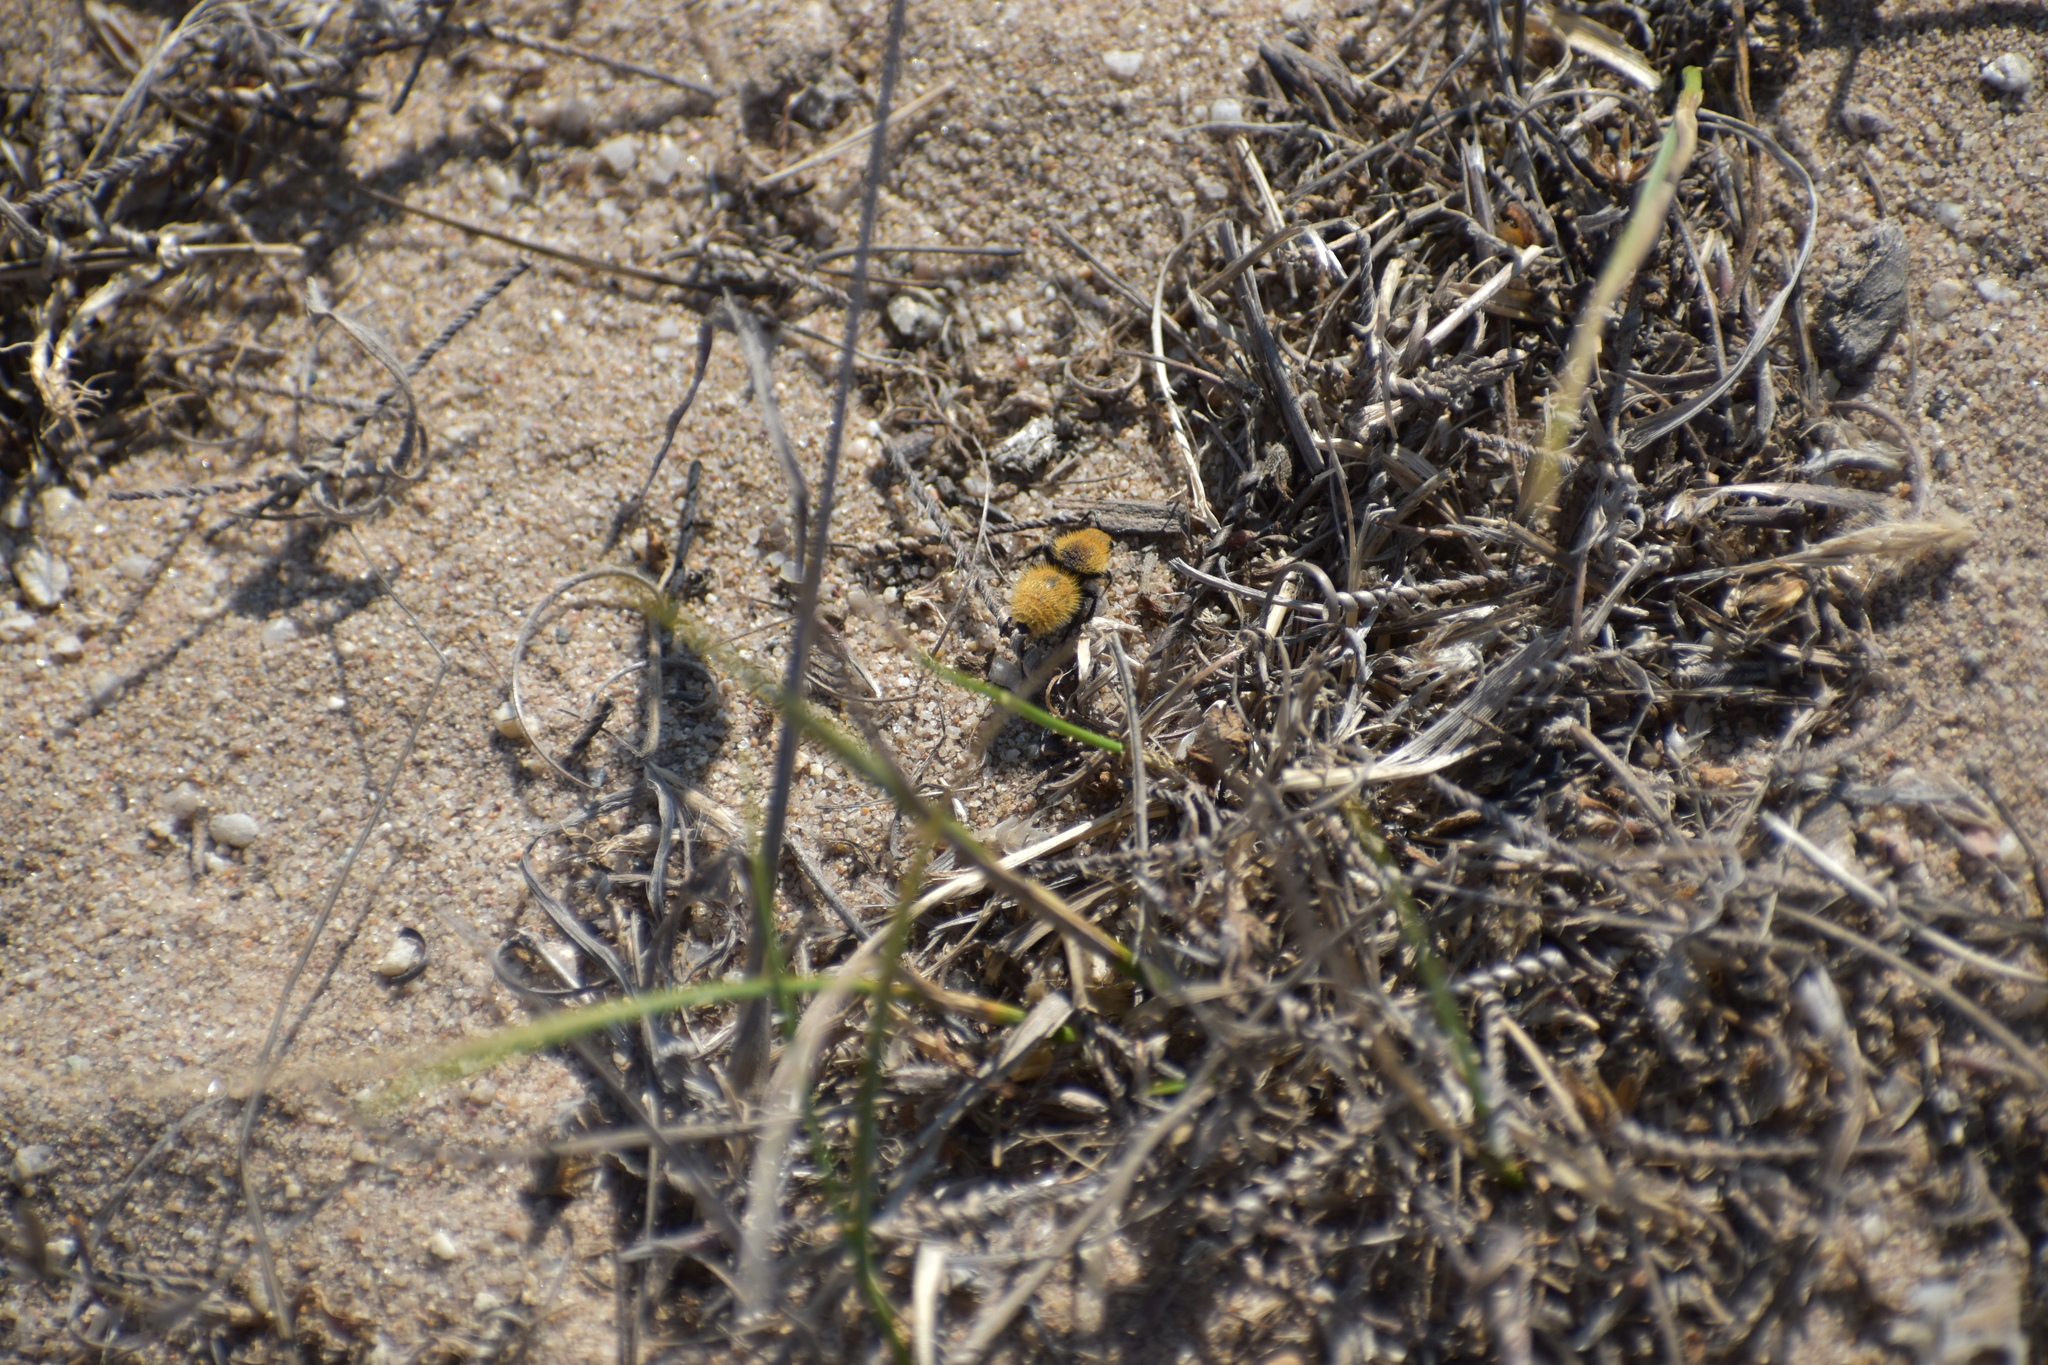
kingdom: Animalia
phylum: Arthropoda
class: Insecta
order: Hymenoptera
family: Mutillidae
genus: Dasymutilla
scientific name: Dasymutilla
